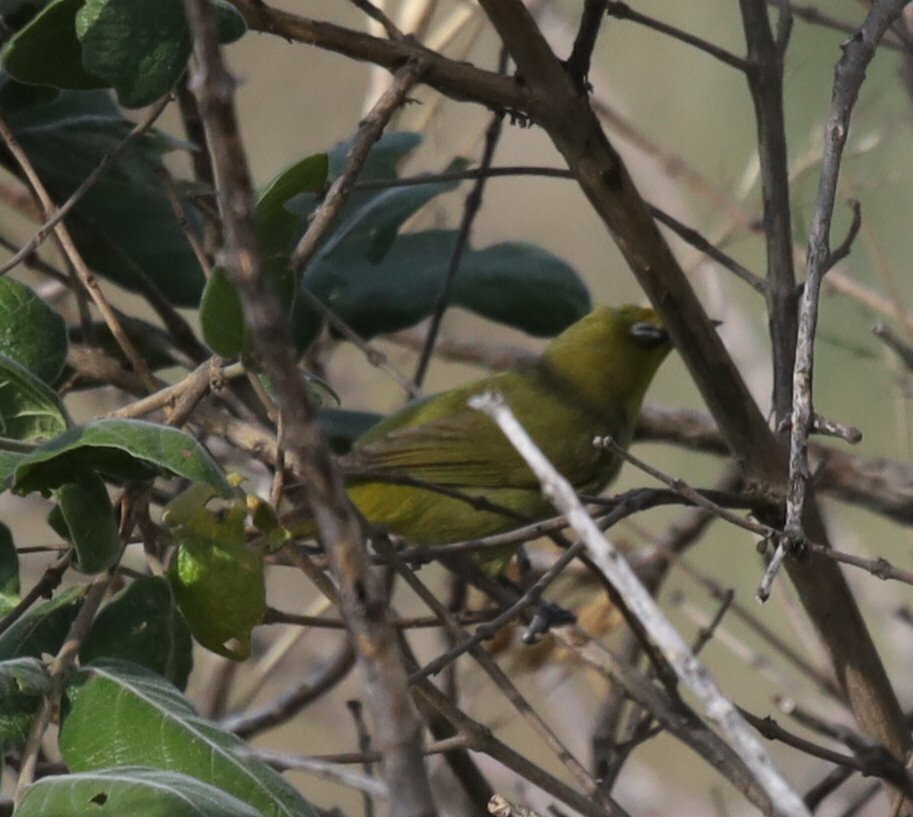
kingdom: Animalia
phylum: Chordata
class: Aves
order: Passeriformes
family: Zosteropidae
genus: Zosterops
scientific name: Zosterops virens
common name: Cape white-eye
